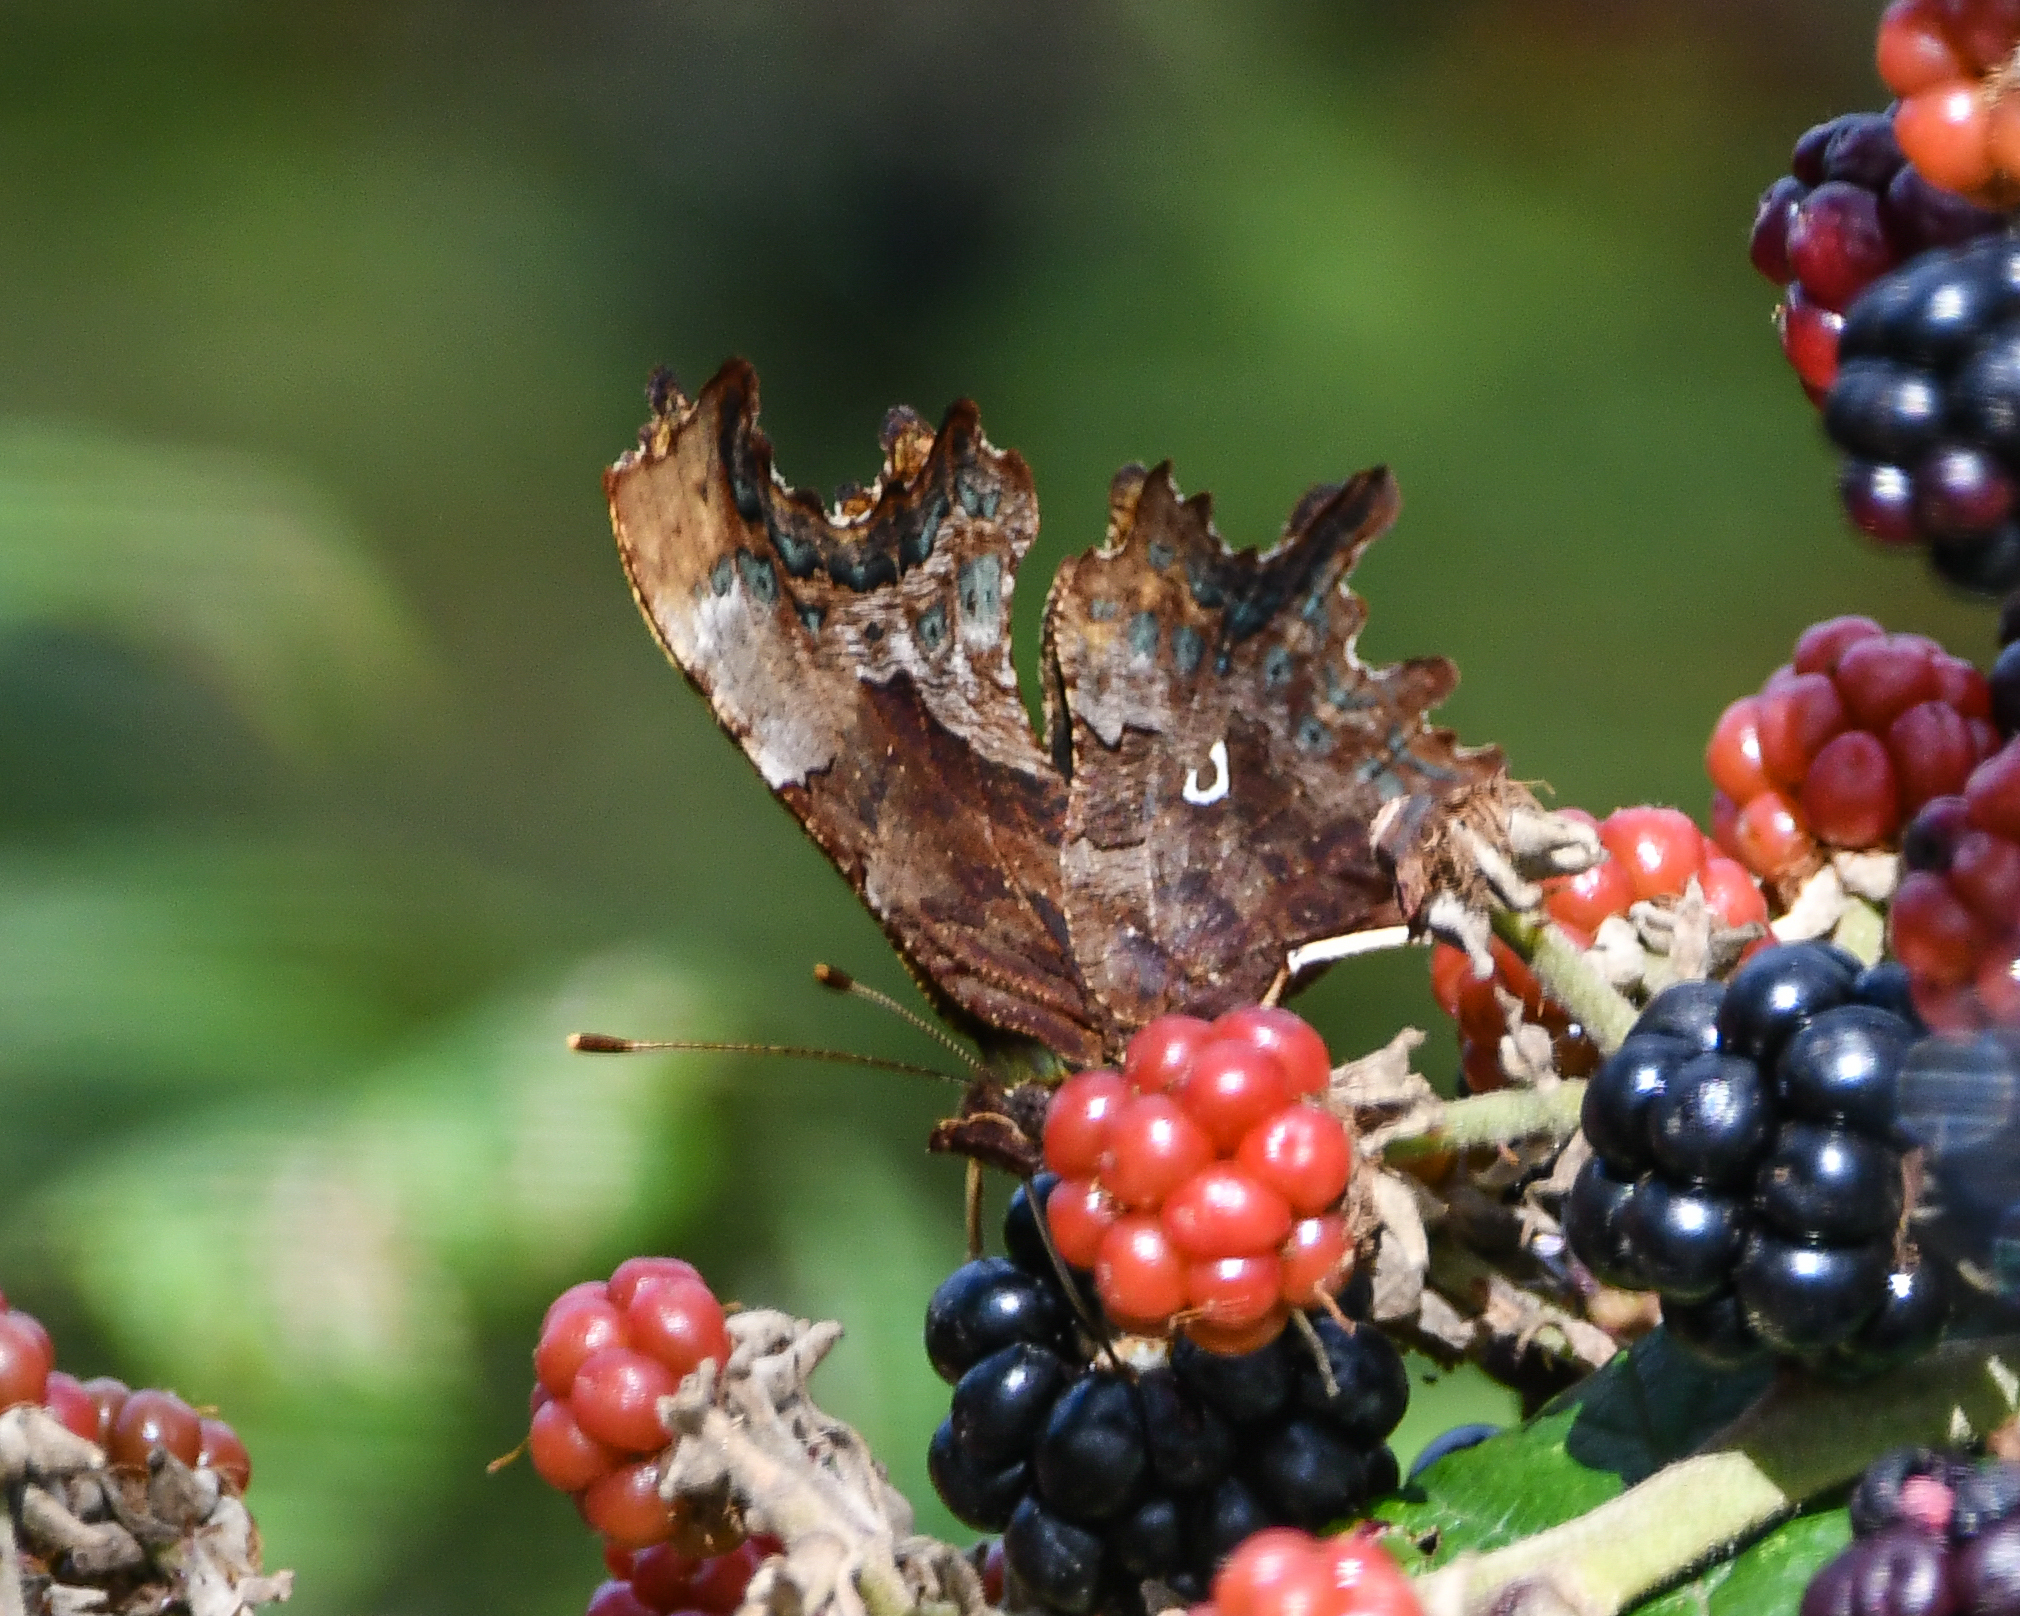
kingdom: Animalia
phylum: Arthropoda
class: Insecta
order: Lepidoptera
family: Nymphalidae
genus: Polygonia
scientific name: Polygonia c-album
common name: Comma
